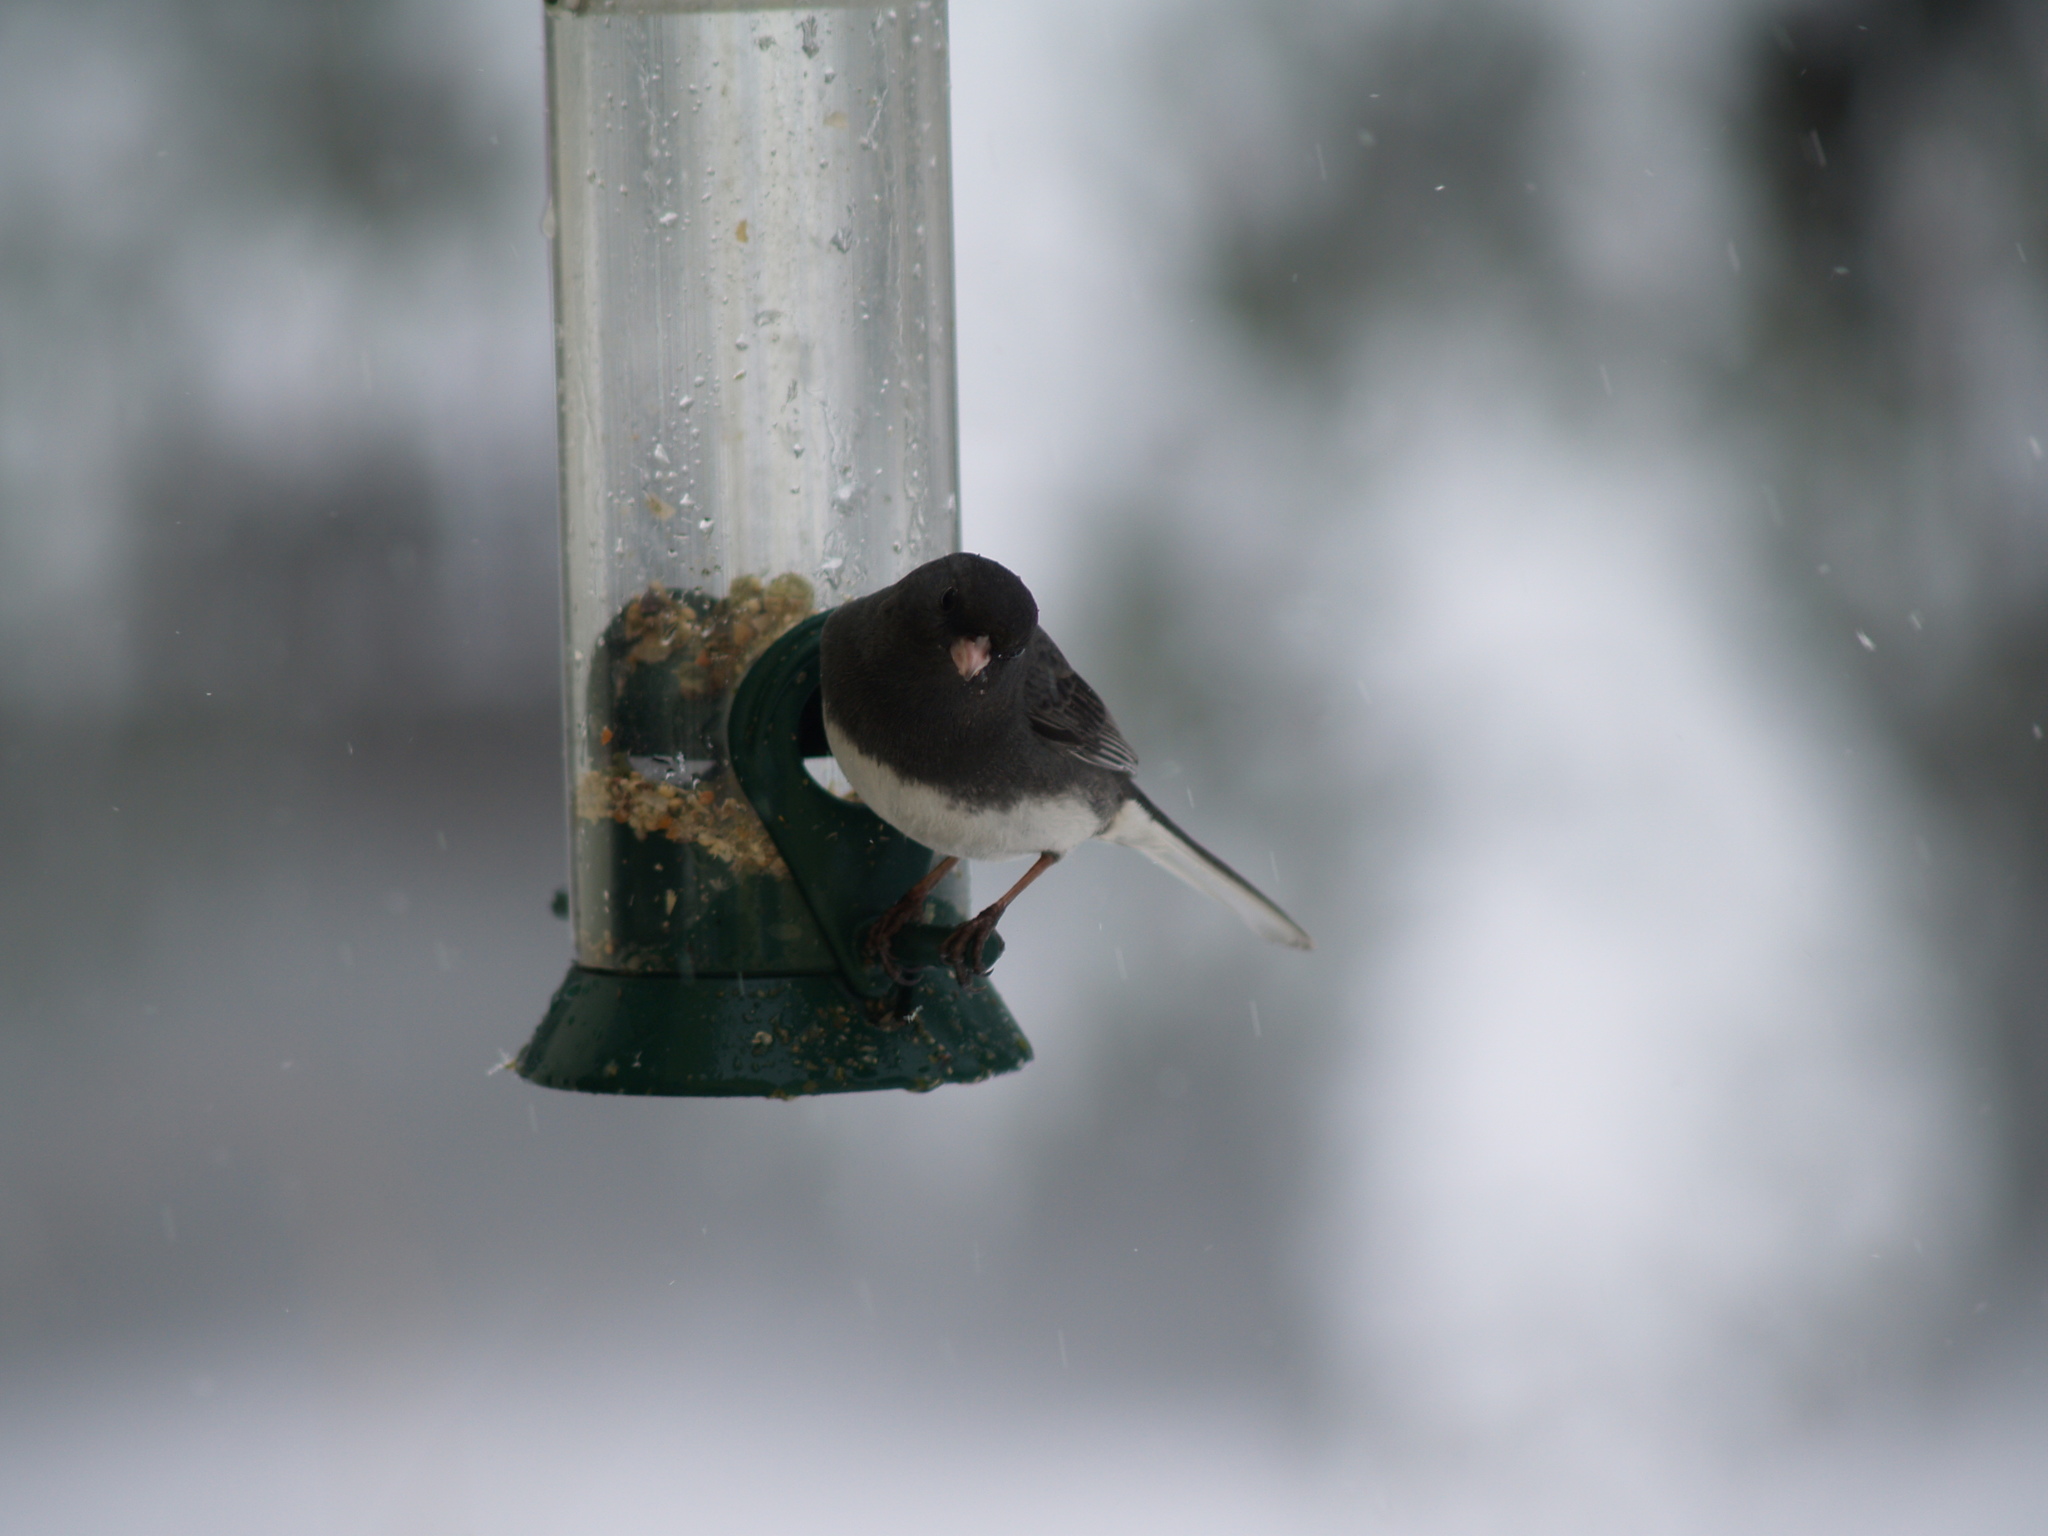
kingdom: Animalia
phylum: Chordata
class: Aves
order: Passeriformes
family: Passerellidae
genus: Junco
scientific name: Junco hyemalis
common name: Dark-eyed junco
